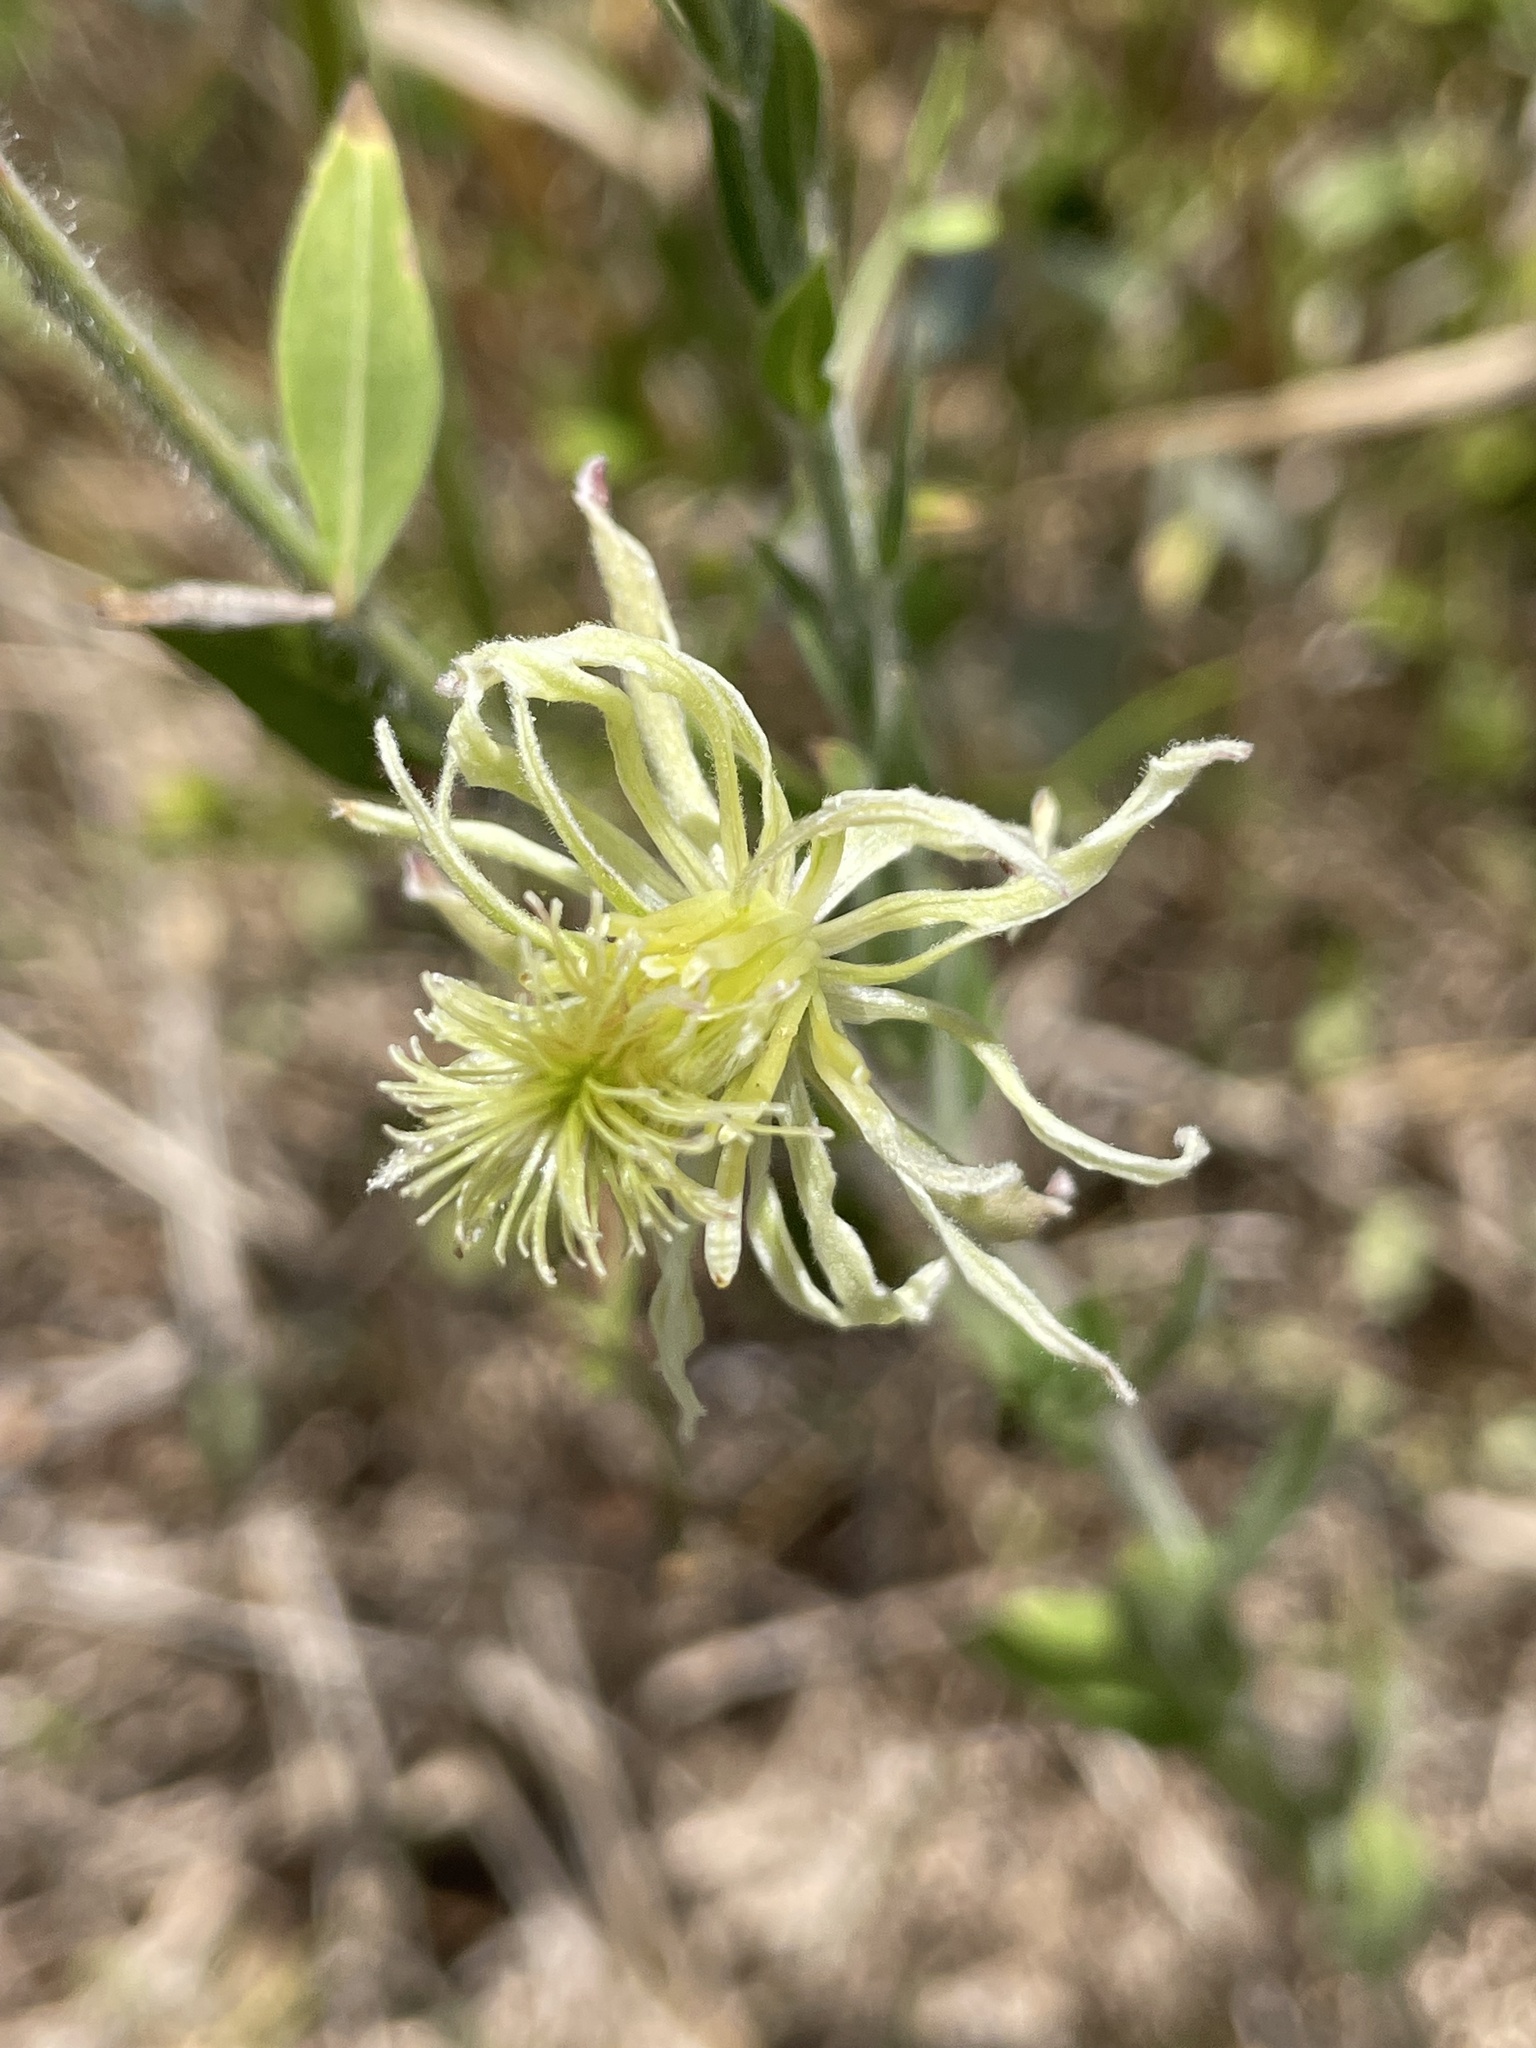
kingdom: Plantae
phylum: Tracheophyta
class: Magnoliopsida
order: Ranunculales
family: Ranunculaceae
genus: Clematis
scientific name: Clematis drummondii
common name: Texas virgin's bower
